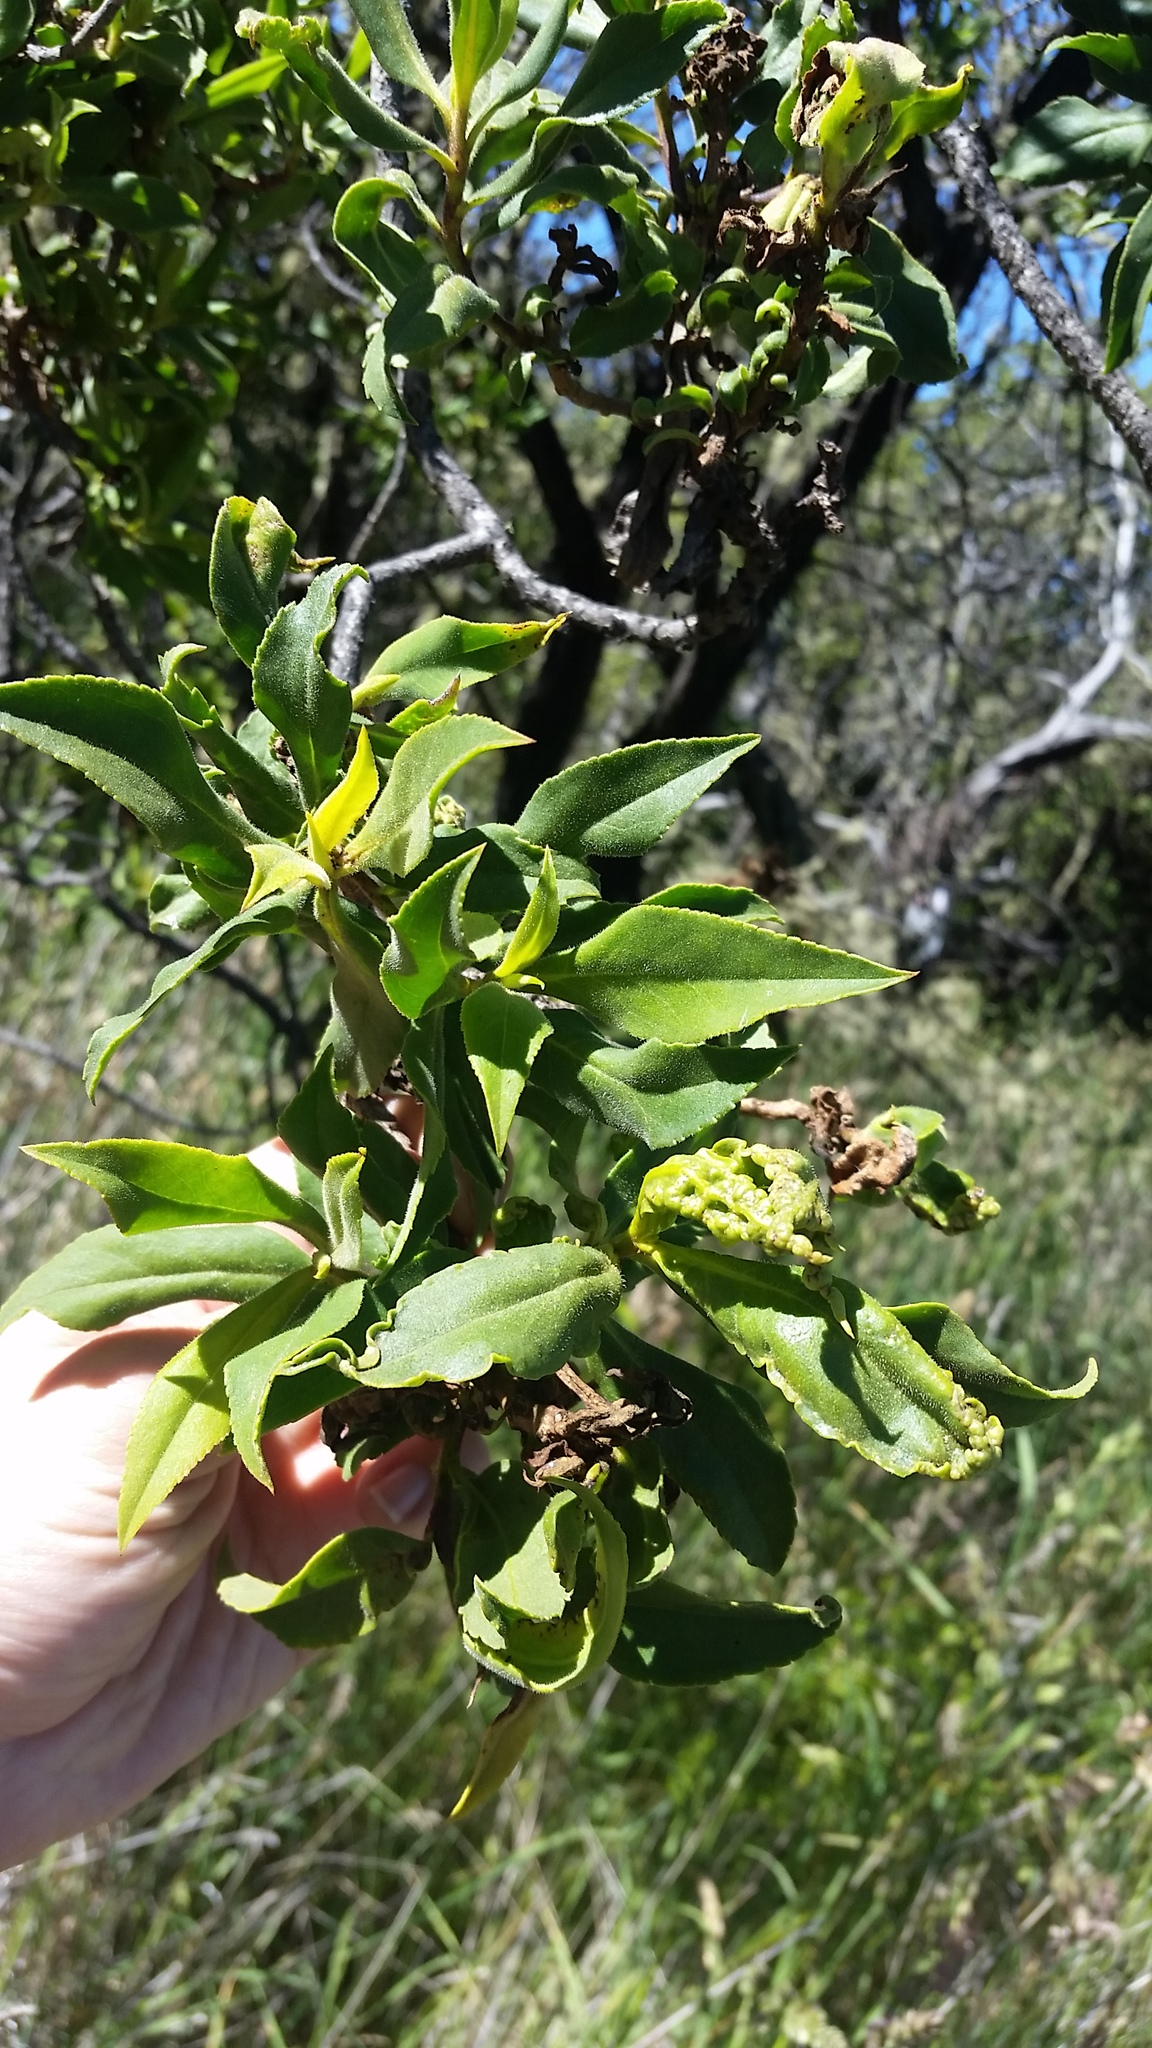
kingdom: Plantae
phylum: Tracheophyta
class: Magnoliopsida
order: Lamiales
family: Scrophulariaceae
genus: Myoporum
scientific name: Myoporum sandwicense
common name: Bastard-sandalwood
